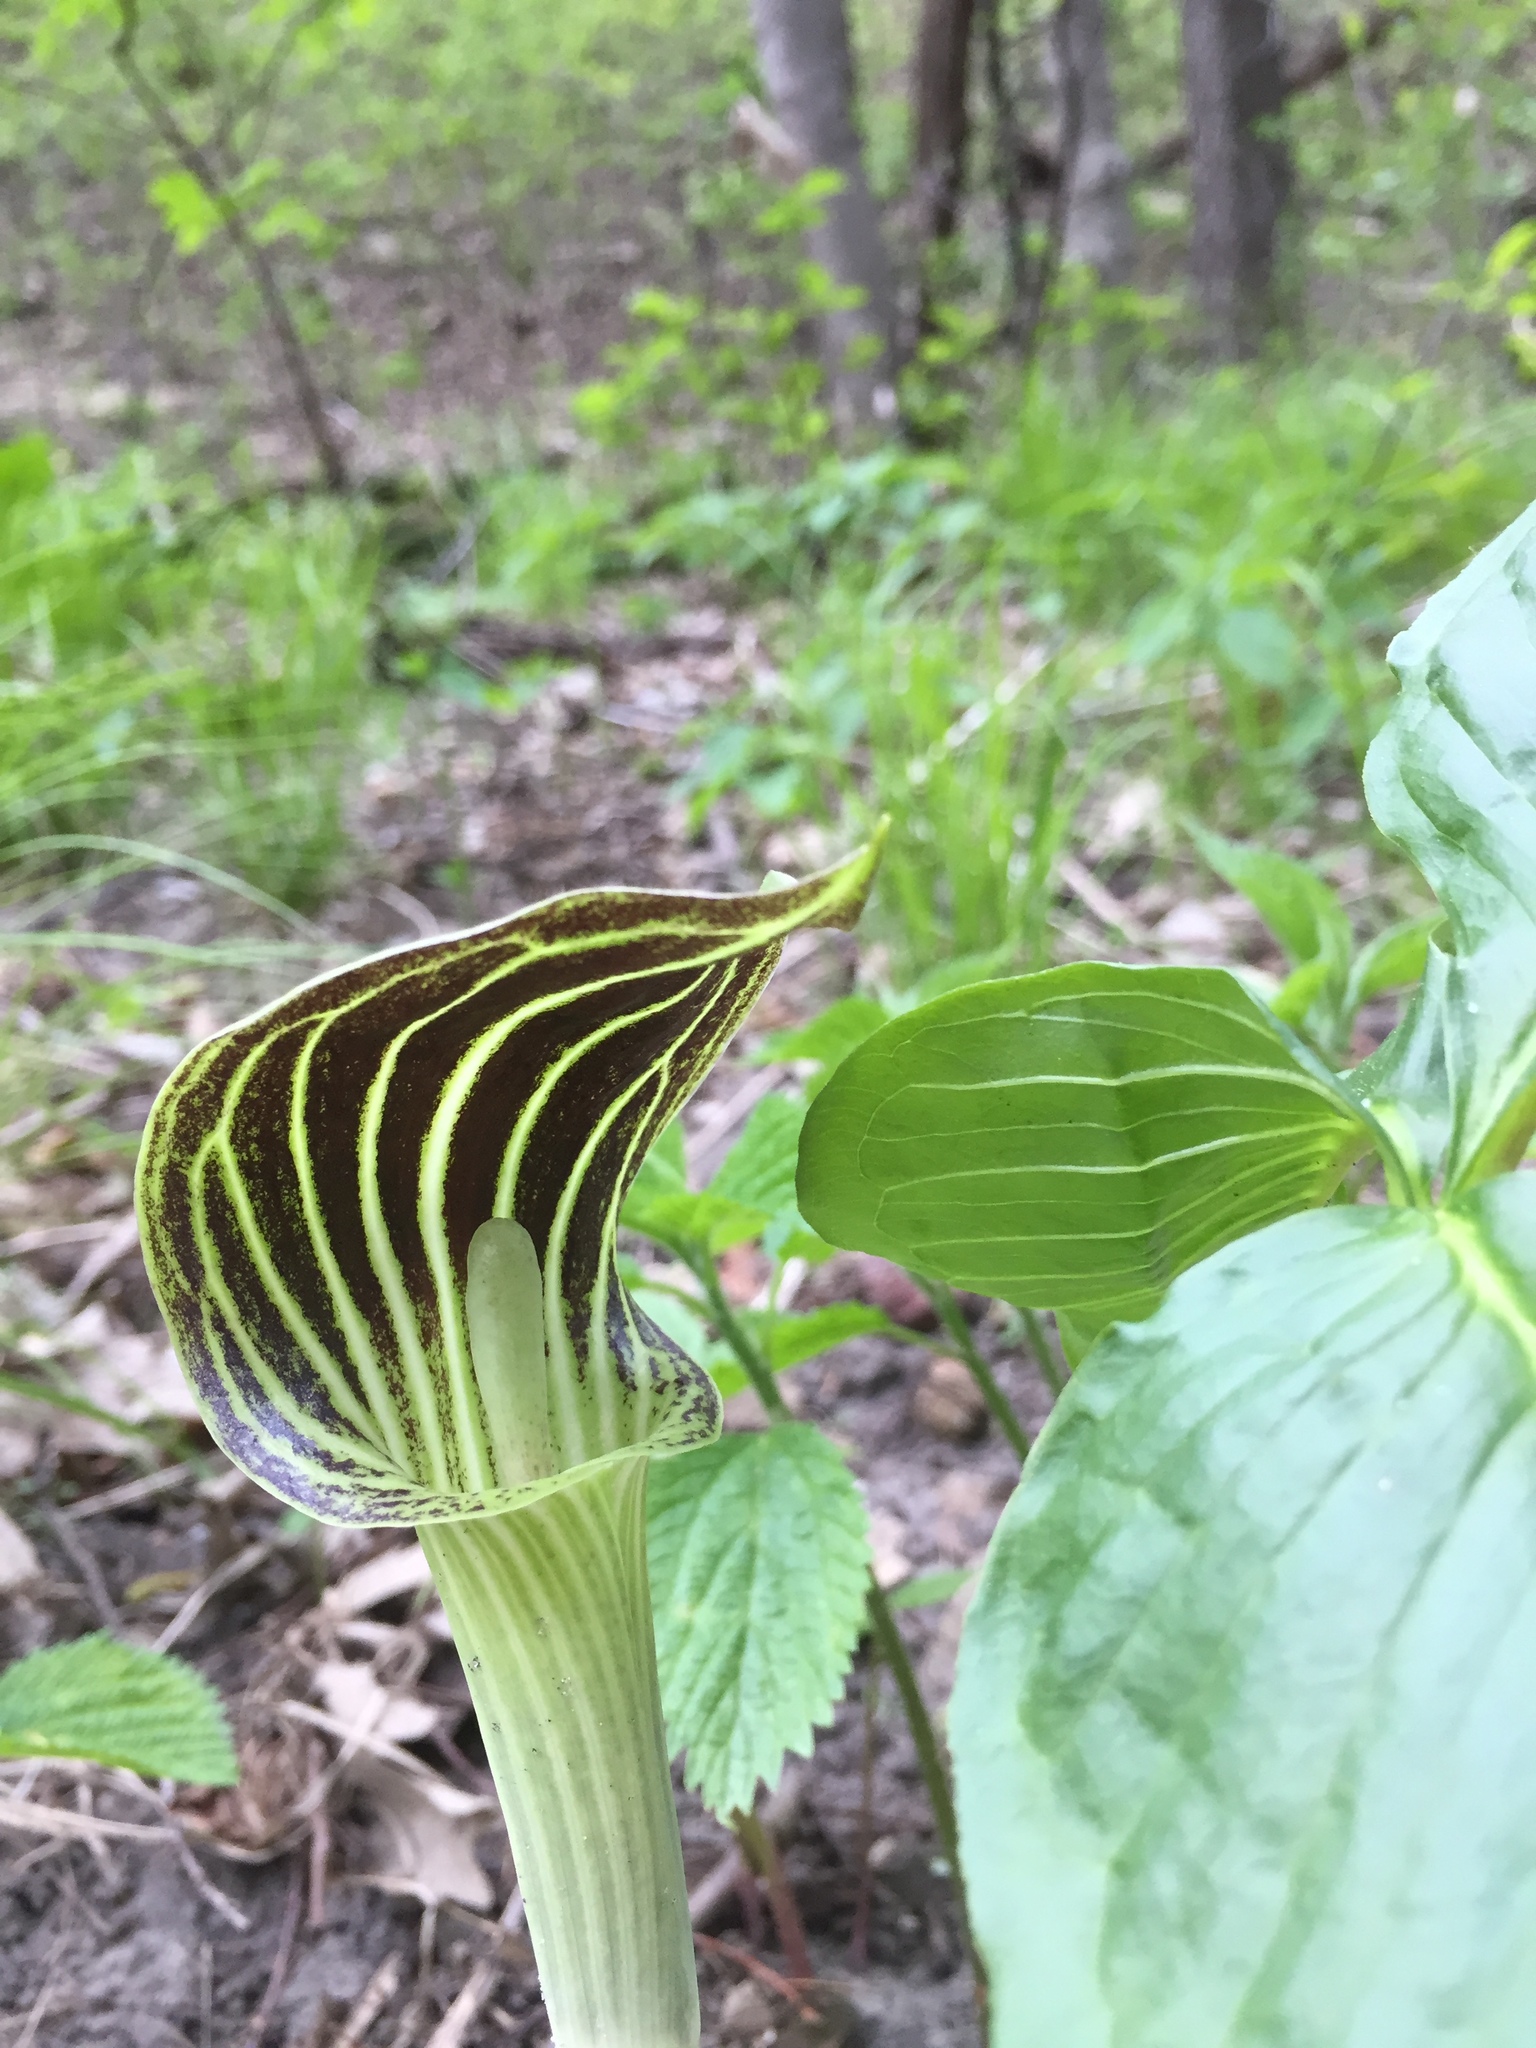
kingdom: Plantae
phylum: Tracheophyta
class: Liliopsida
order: Alismatales
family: Araceae
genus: Arisaema
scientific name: Arisaema triphyllum
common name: Jack-in-the-pulpit
